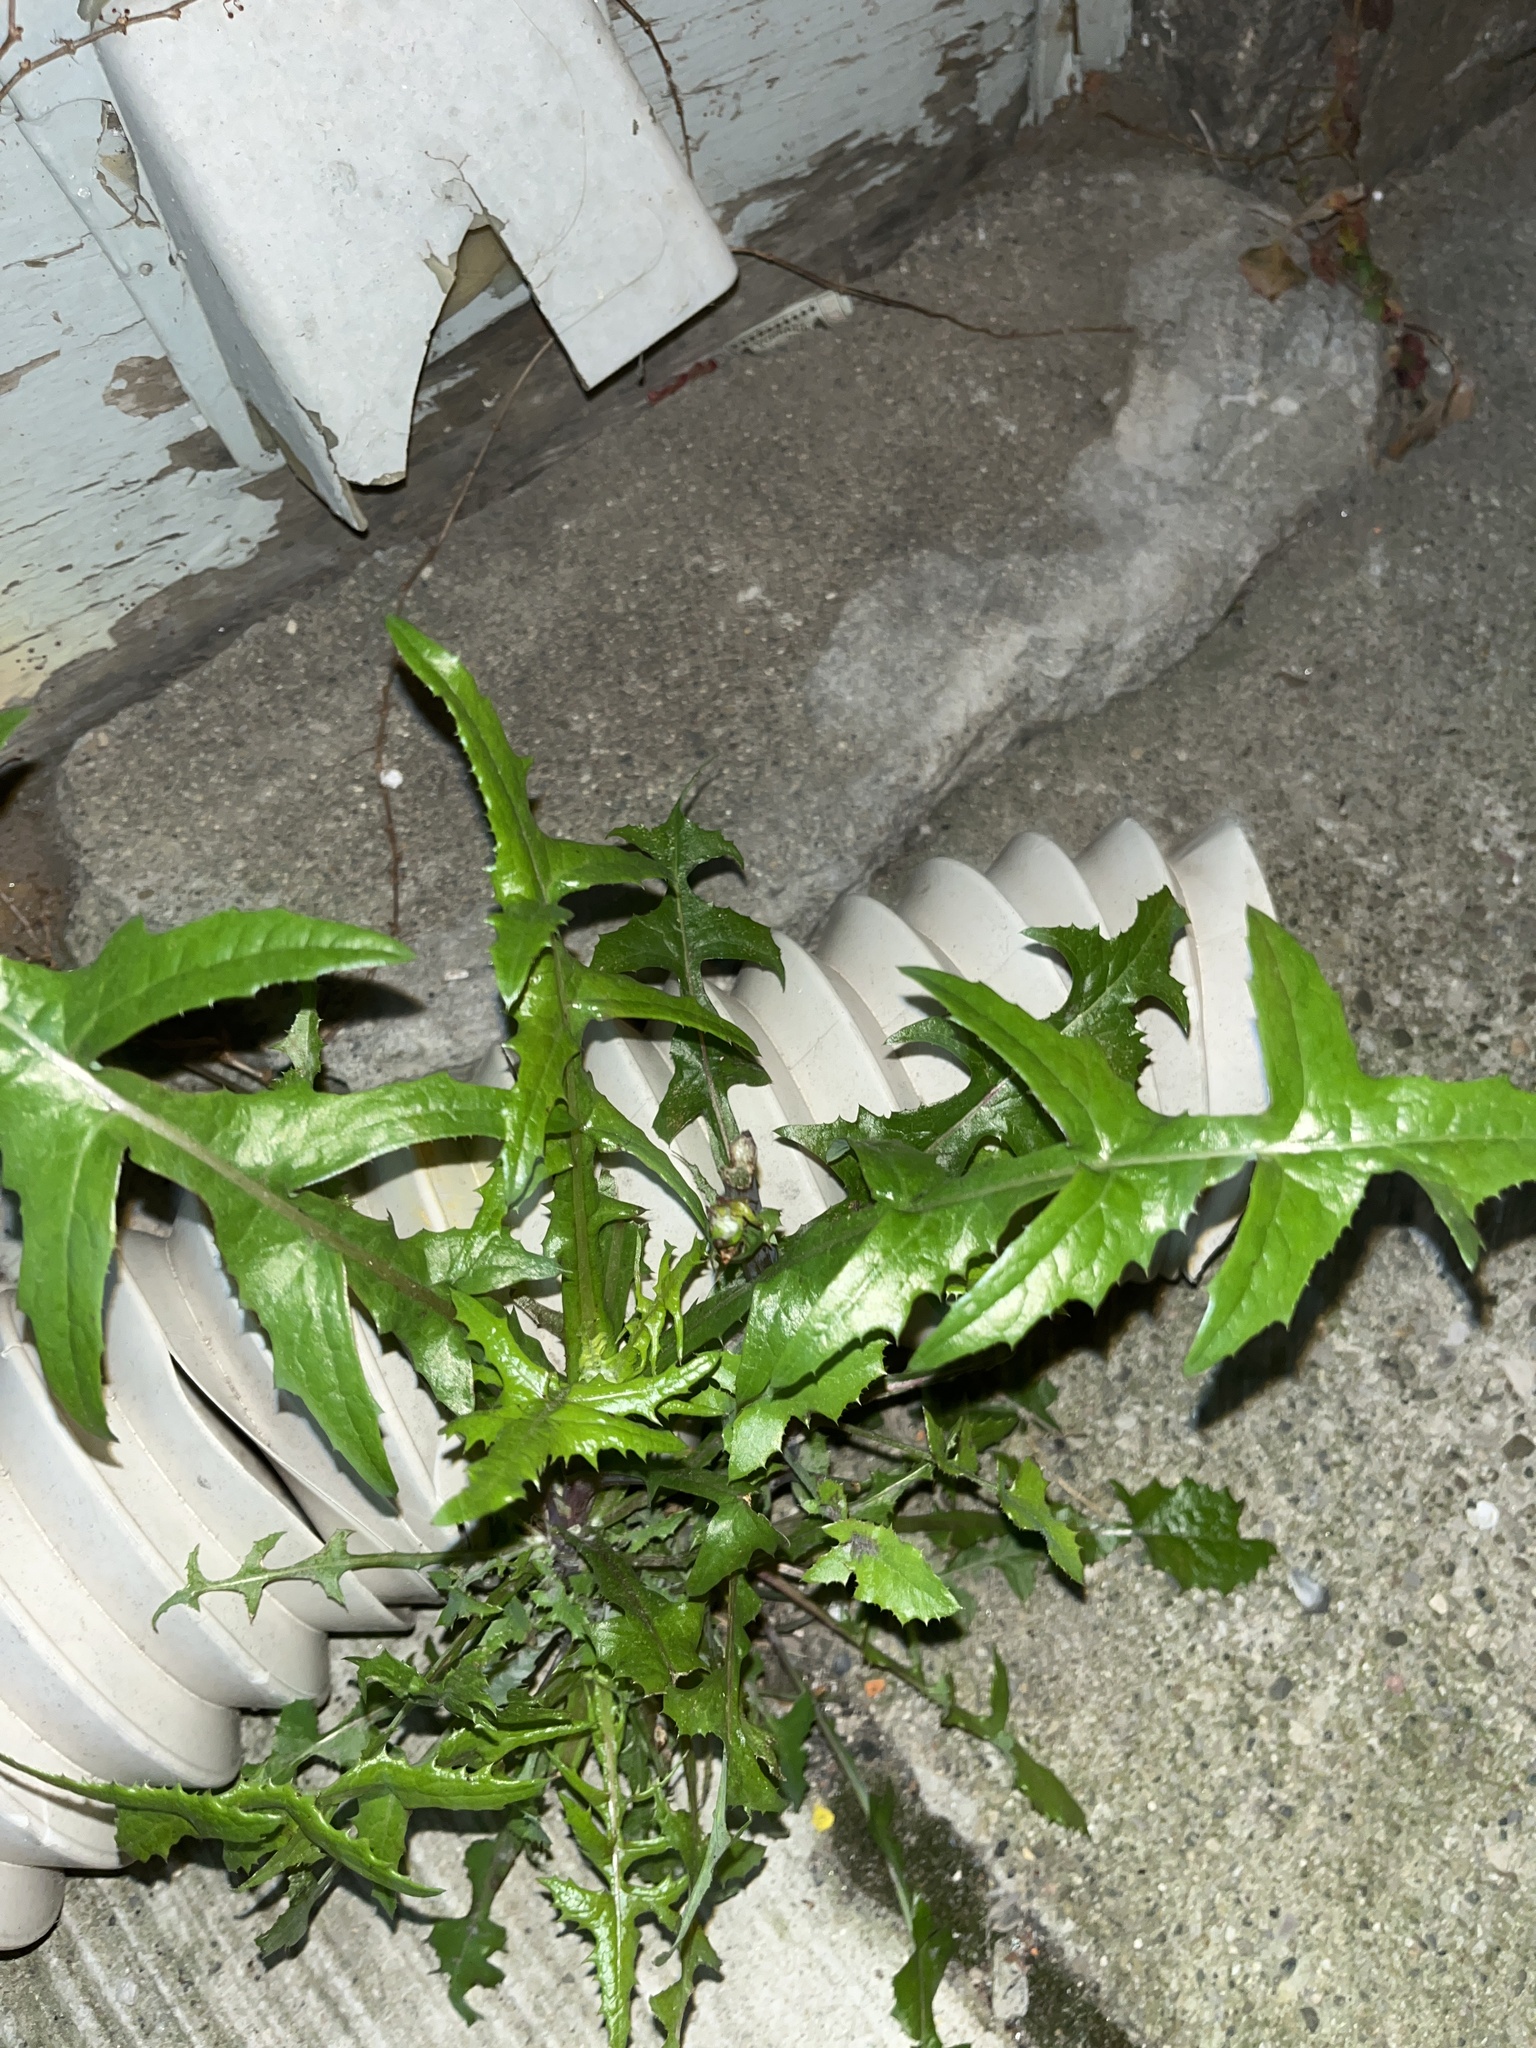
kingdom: Plantae
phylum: Tracheophyta
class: Magnoliopsida
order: Asterales
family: Asteraceae
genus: Sonchus
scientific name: Sonchus
